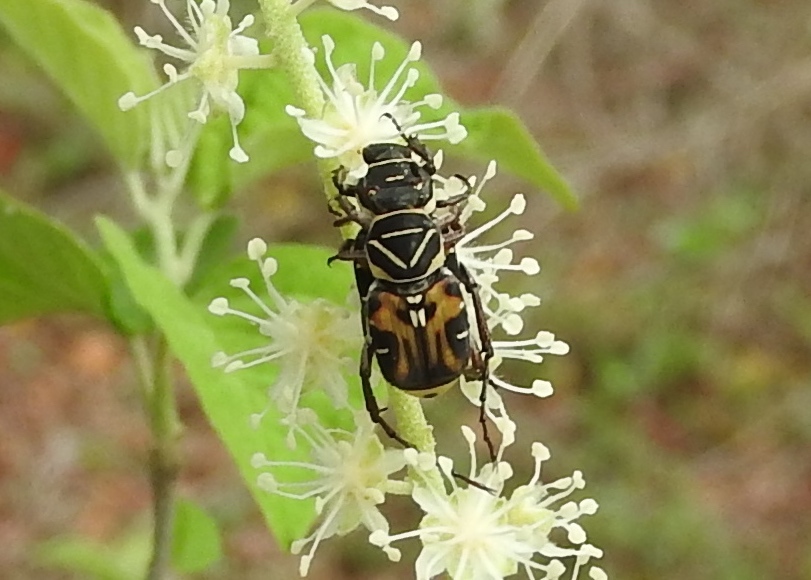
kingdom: Animalia
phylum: Arthropoda
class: Insecta
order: Coleoptera
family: Scarabaeidae
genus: Trigonopeltastes
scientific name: Trigonopeltastes sallaei
